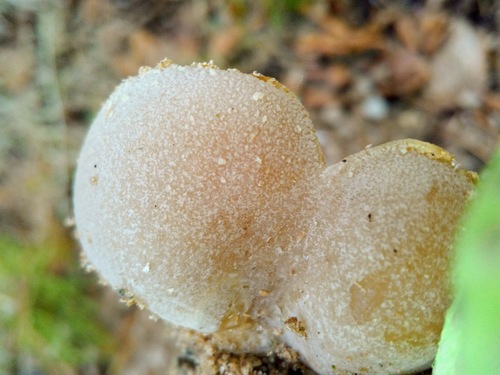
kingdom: Fungi
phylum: Ascomycota
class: Pezizomycetes
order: Pezizales
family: Pezizaceae
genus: Peziza
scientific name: Peziza varia
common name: Layered cup
